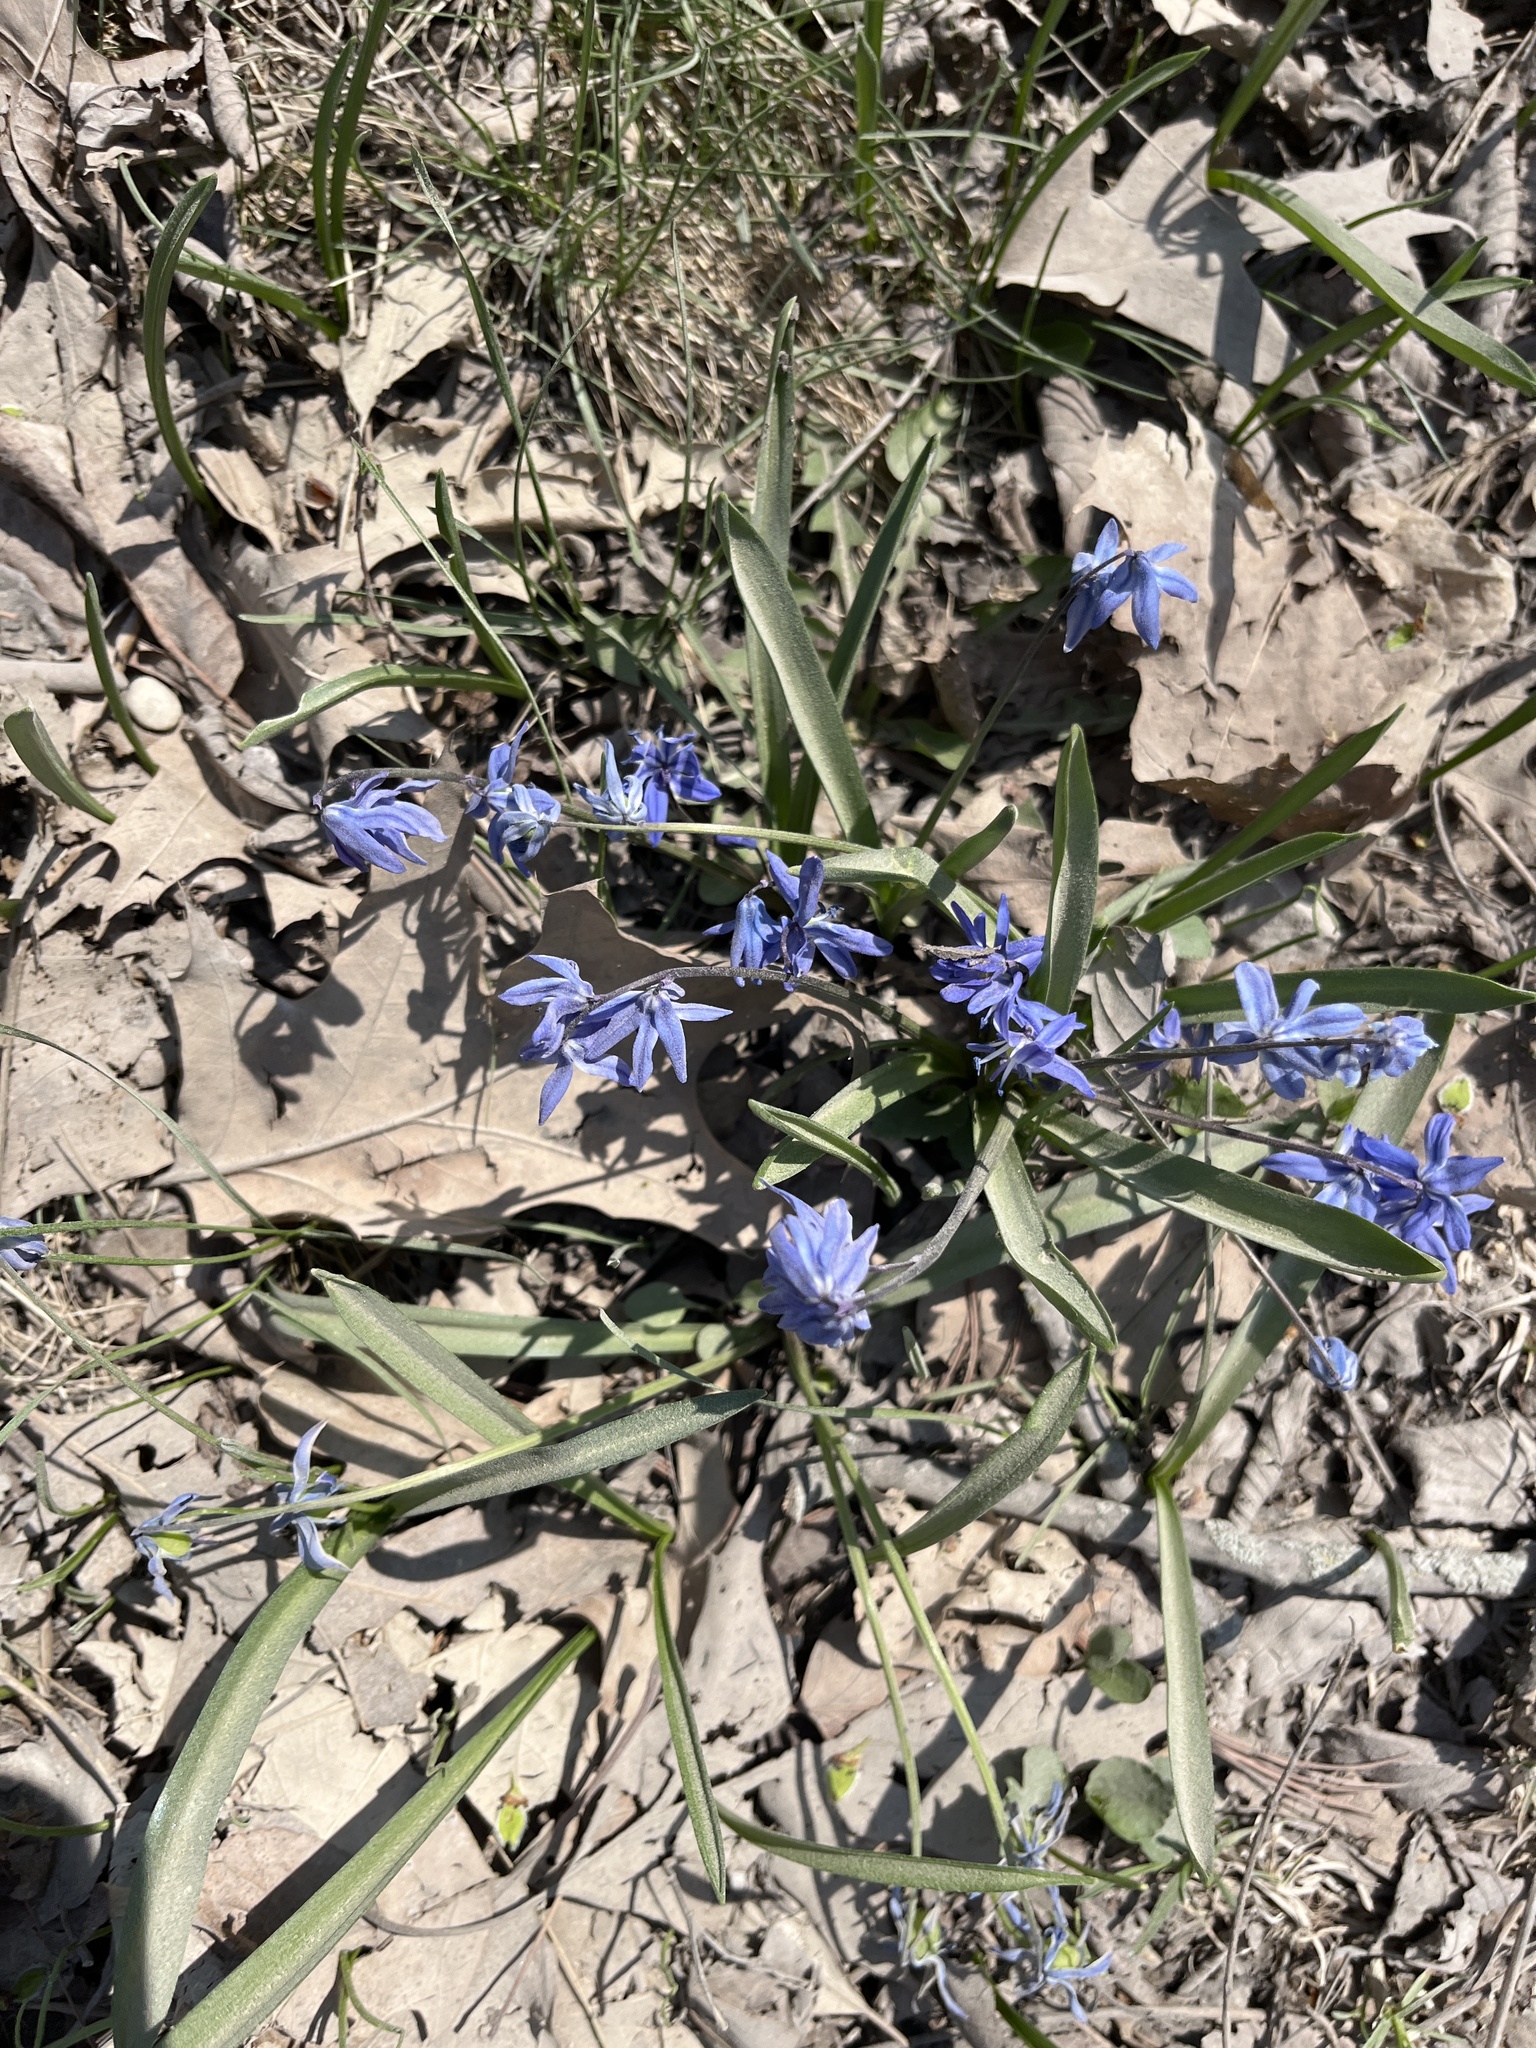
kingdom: Plantae
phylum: Tracheophyta
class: Liliopsida
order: Asparagales
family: Asparagaceae
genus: Scilla
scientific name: Scilla siberica
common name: Siberian squill
